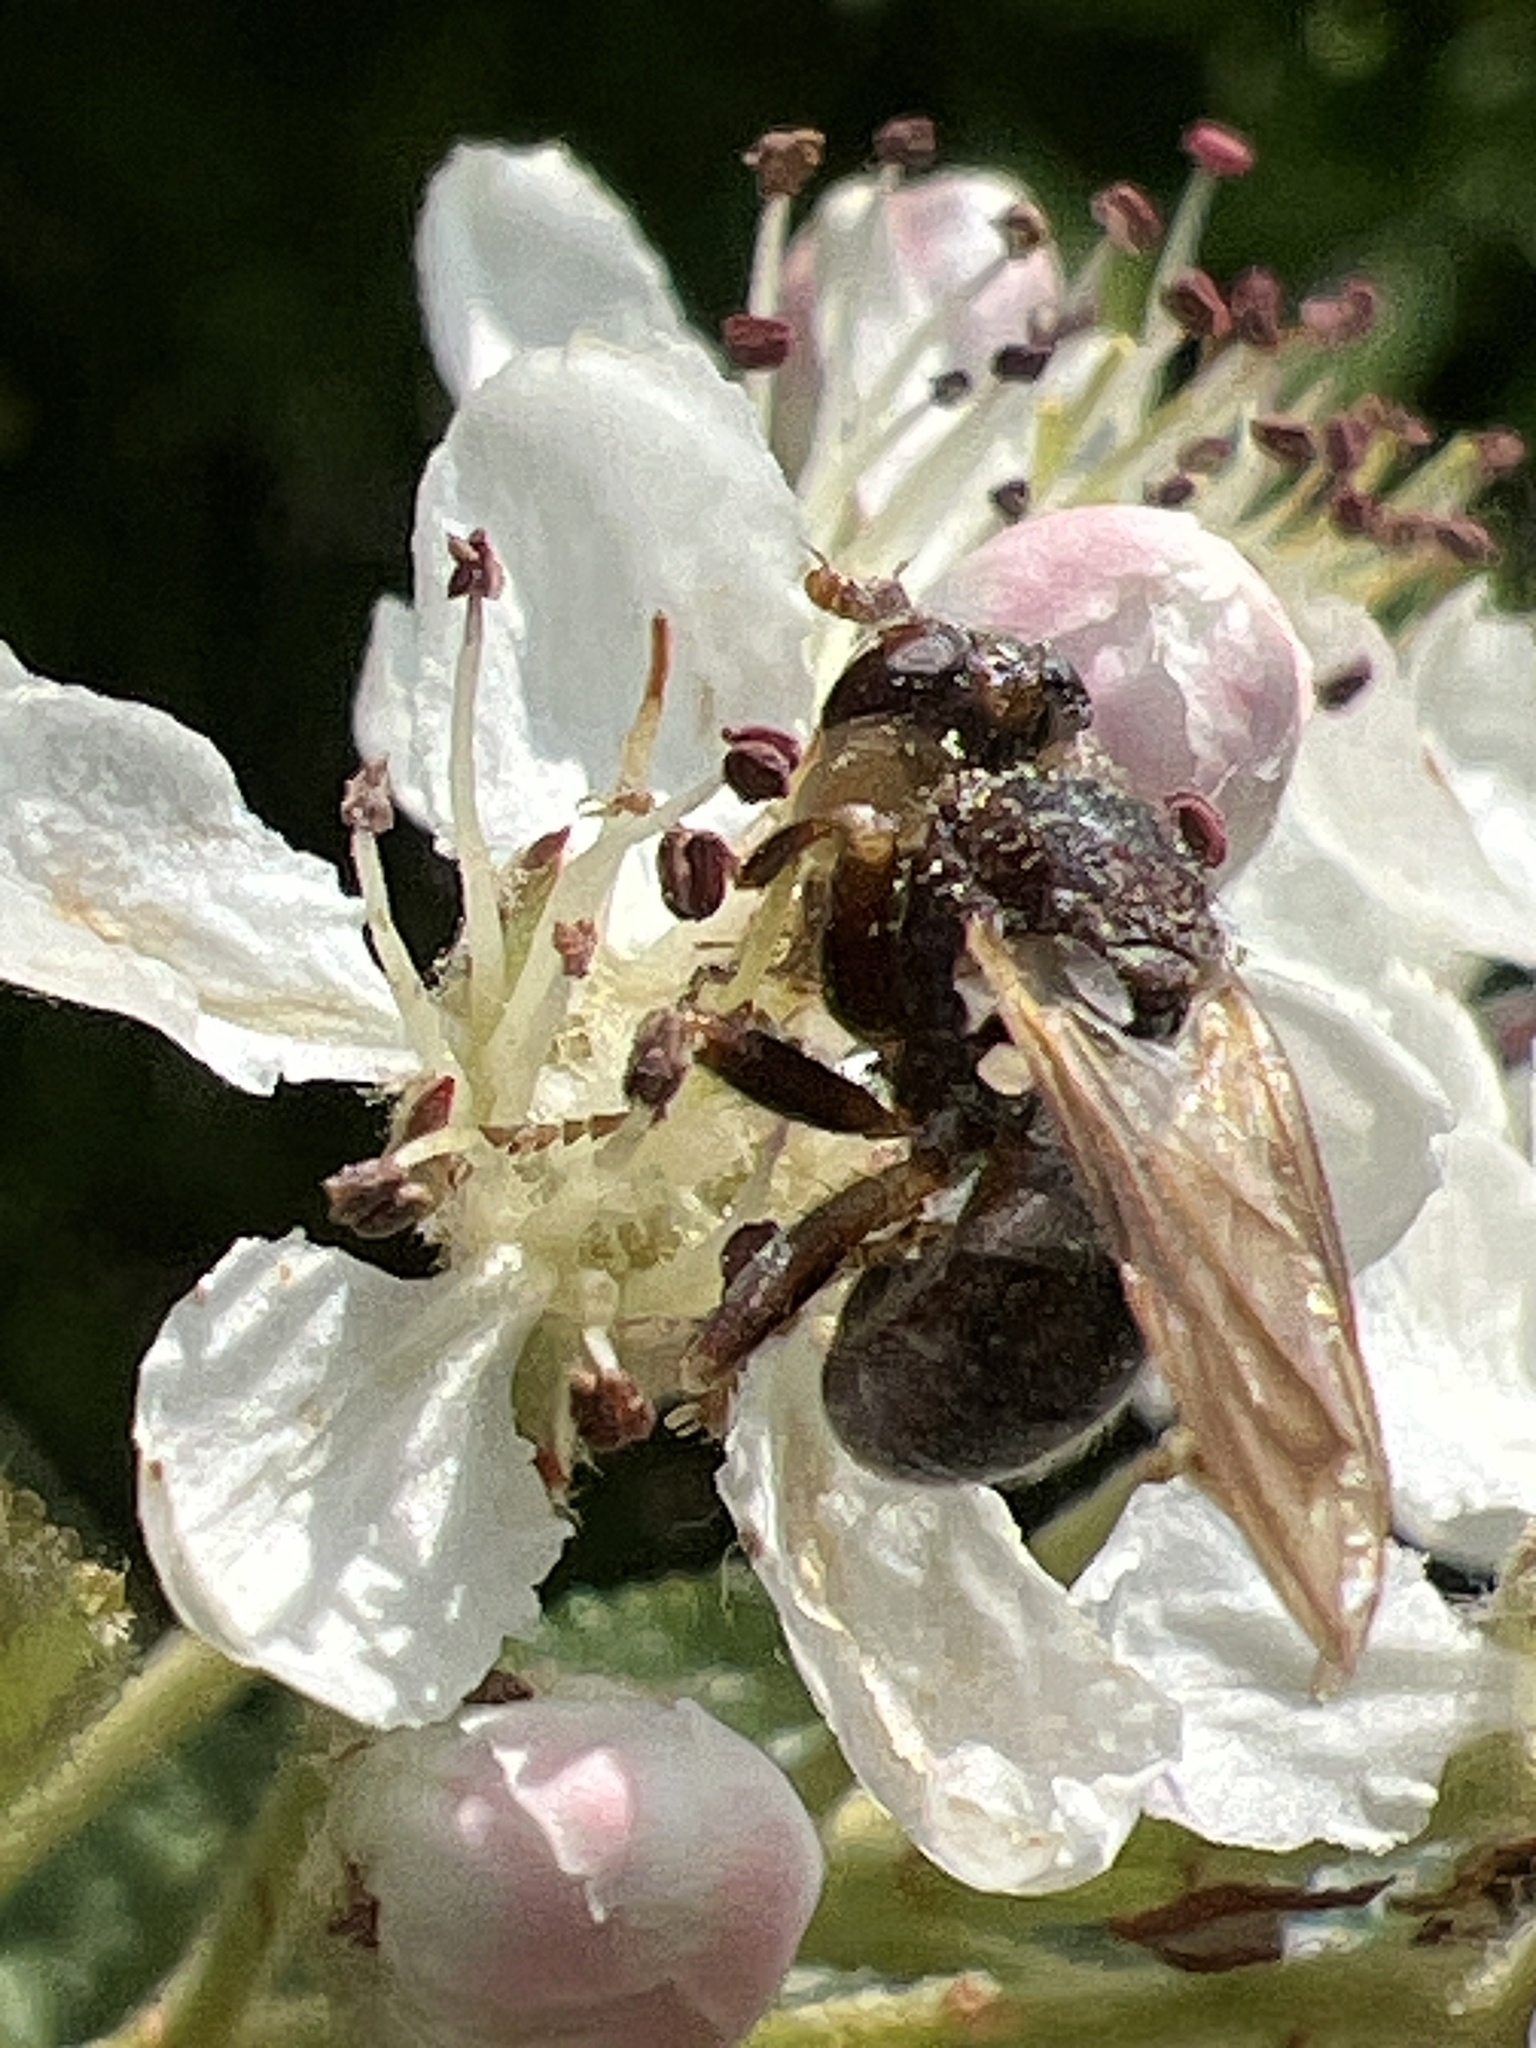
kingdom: Animalia
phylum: Arthropoda
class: Insecta
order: Diptera
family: Conopidae
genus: Myopa
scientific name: Myopa vesiculosa
